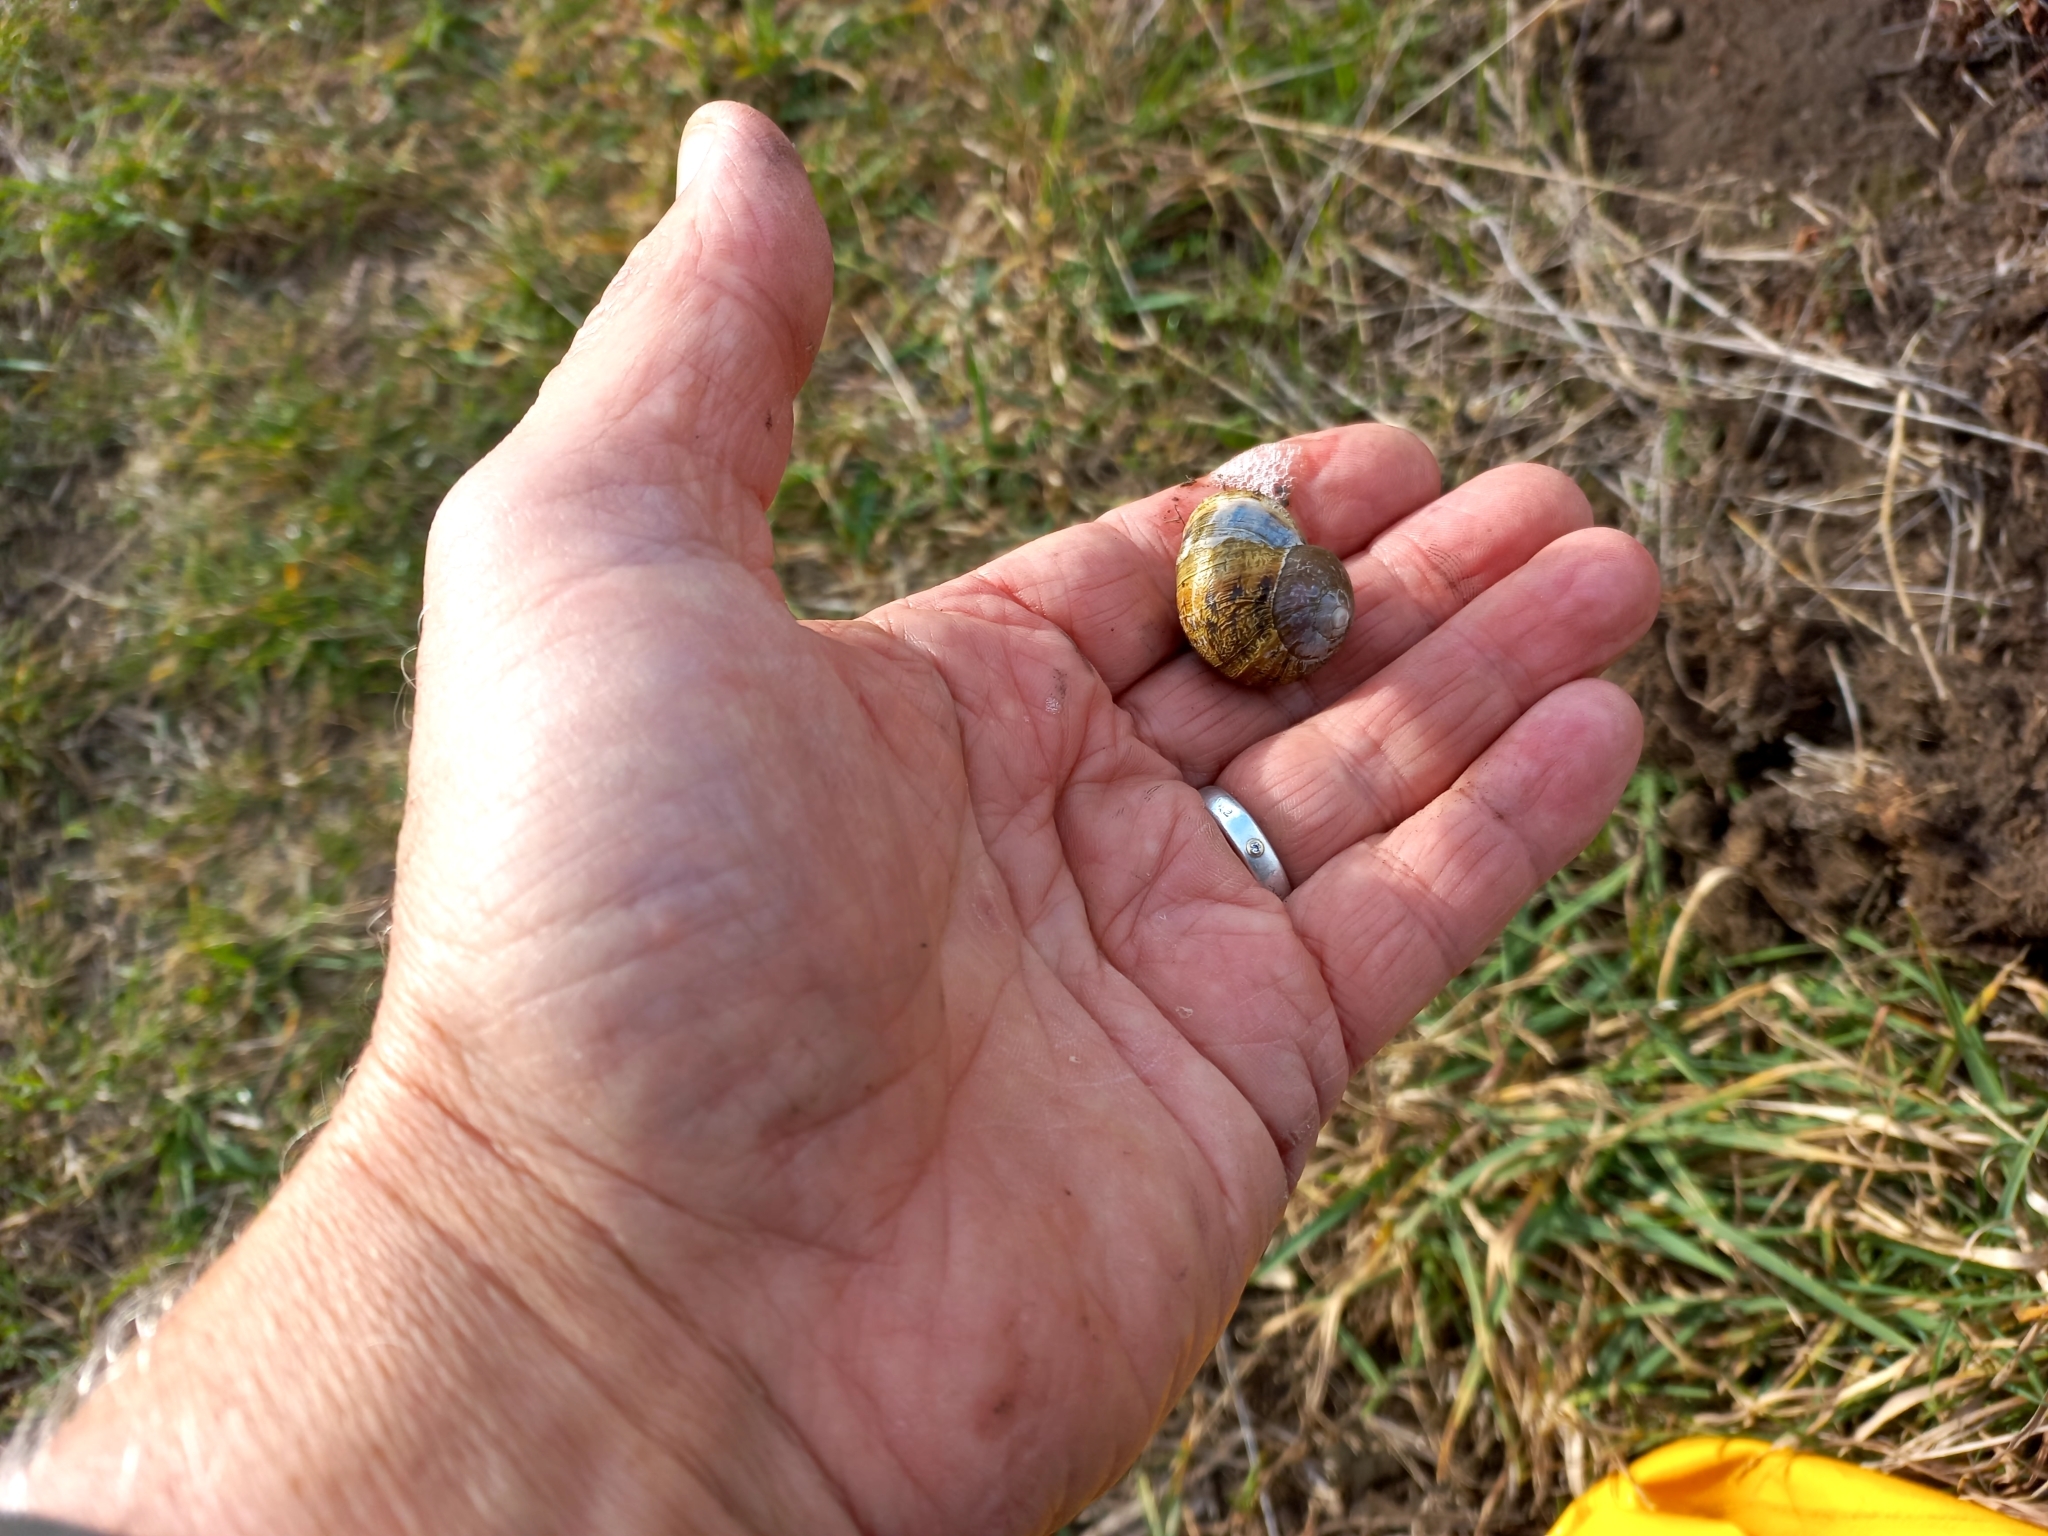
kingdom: Animalia
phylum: Mollusca
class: Gastropoda
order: Stylommatophora
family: Helicidae
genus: Cornu
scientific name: Cornu aspersum
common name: Brown garden snail
